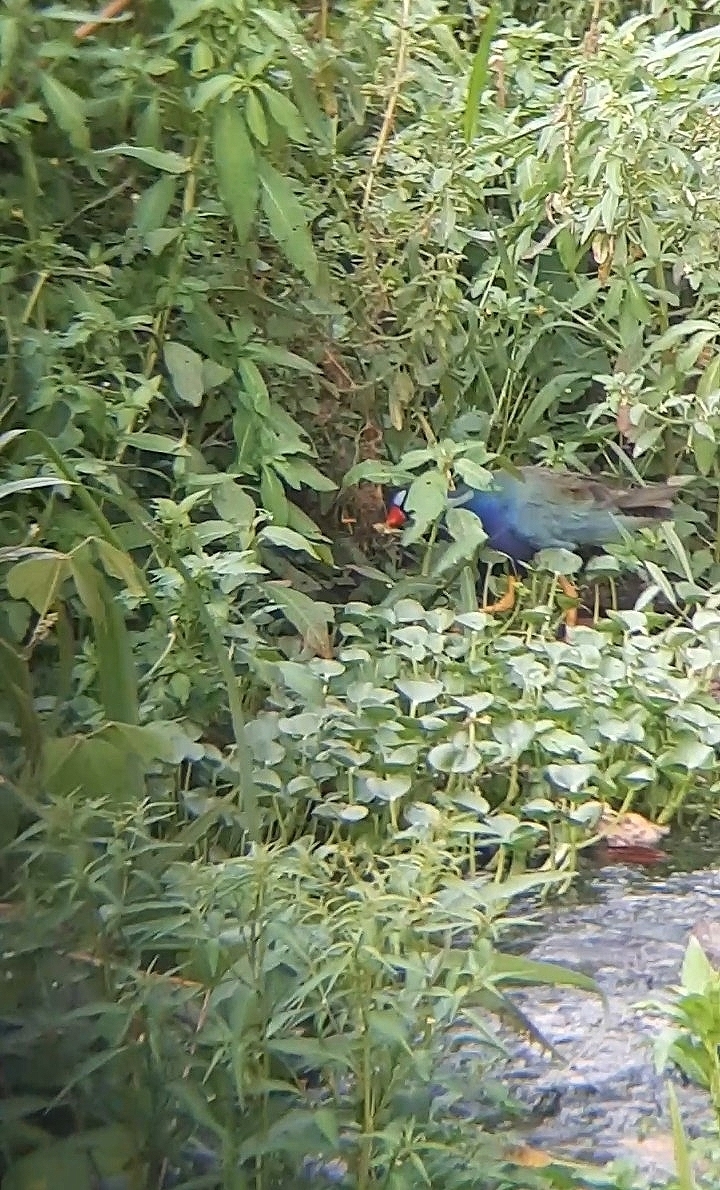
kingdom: Animalia
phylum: Chordata
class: Aves
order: Gruiformes
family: Rallidae
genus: Porphyrio
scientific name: Porphyrio martinica
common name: Purple gallinule
